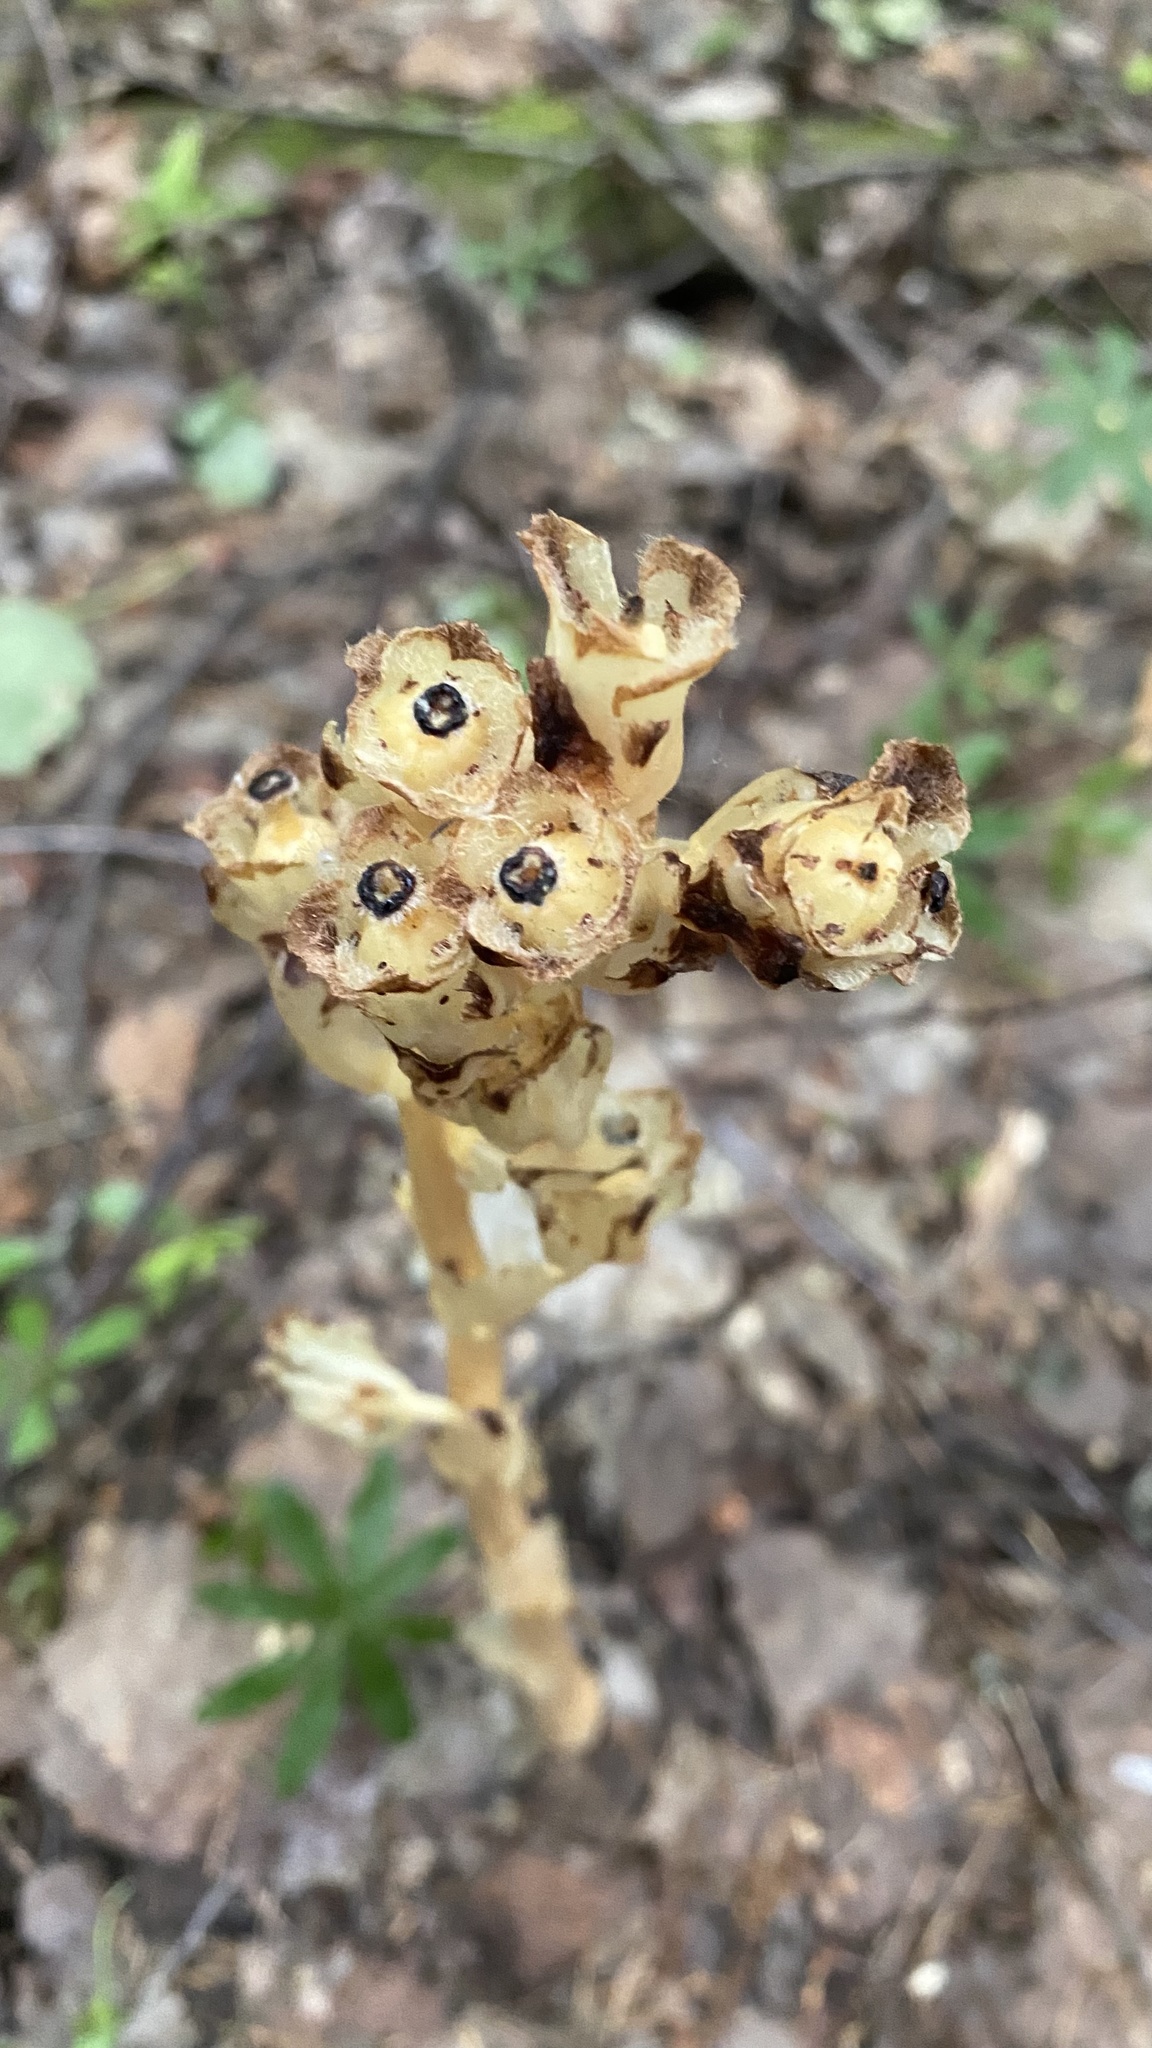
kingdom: Plantae
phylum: Tracheophyta
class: Magnoliopsida
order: Ericales
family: Ericaceae
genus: Hypopitys
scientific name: Hypopitys monotropa
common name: Yellow bird's-nest
